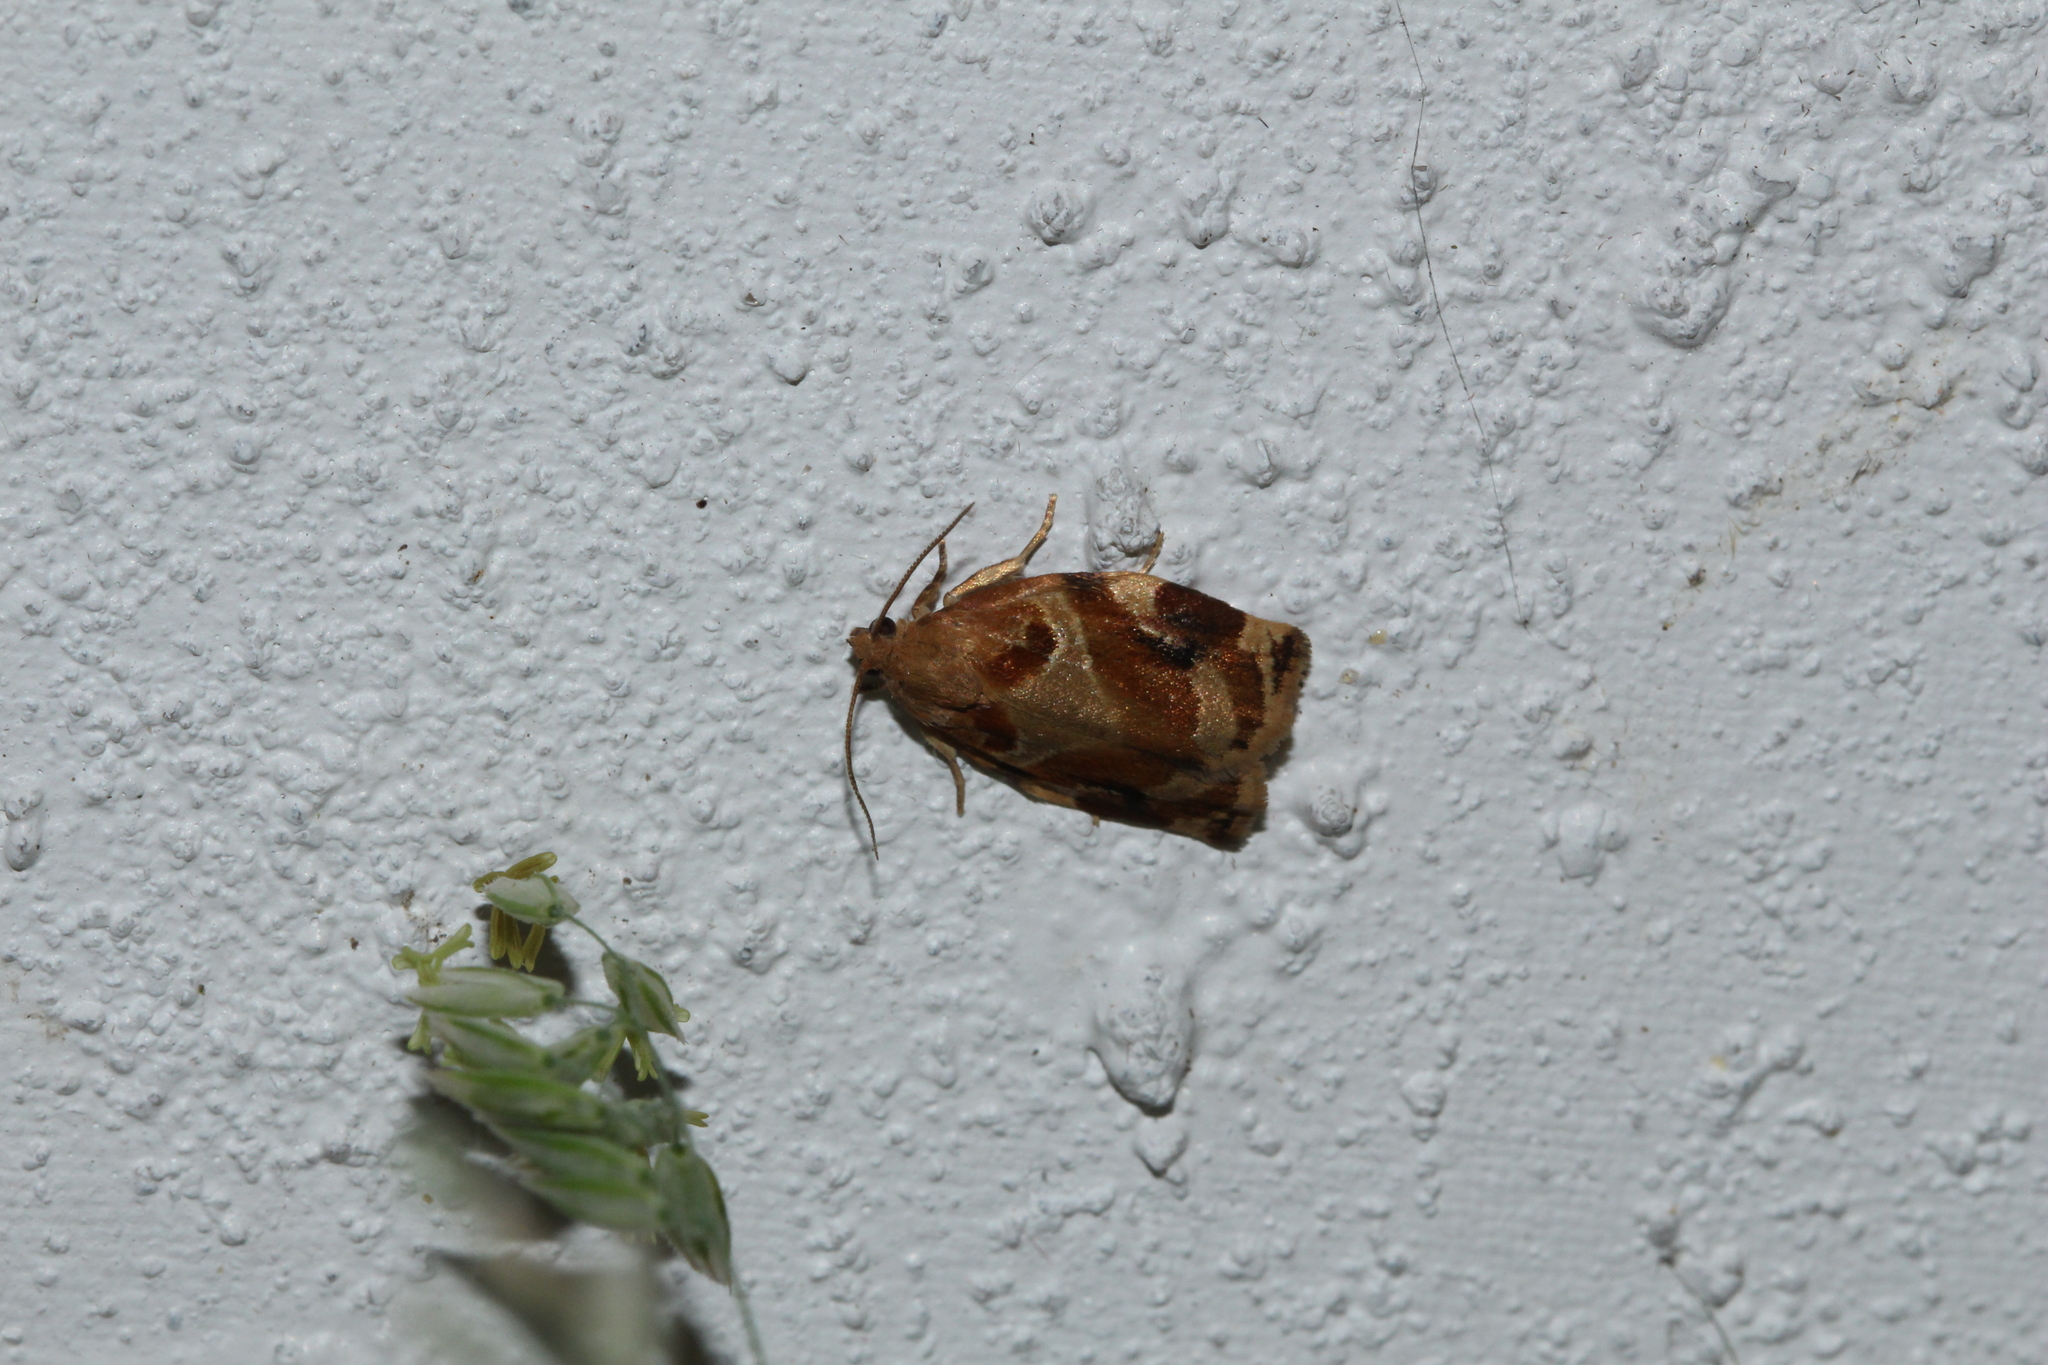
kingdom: Animalia
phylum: Arthropoda
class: Insecta
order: Lepidoptera
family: Tortricidae
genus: Archips
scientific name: Archips xylosteana
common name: Variegated golden tortrix
